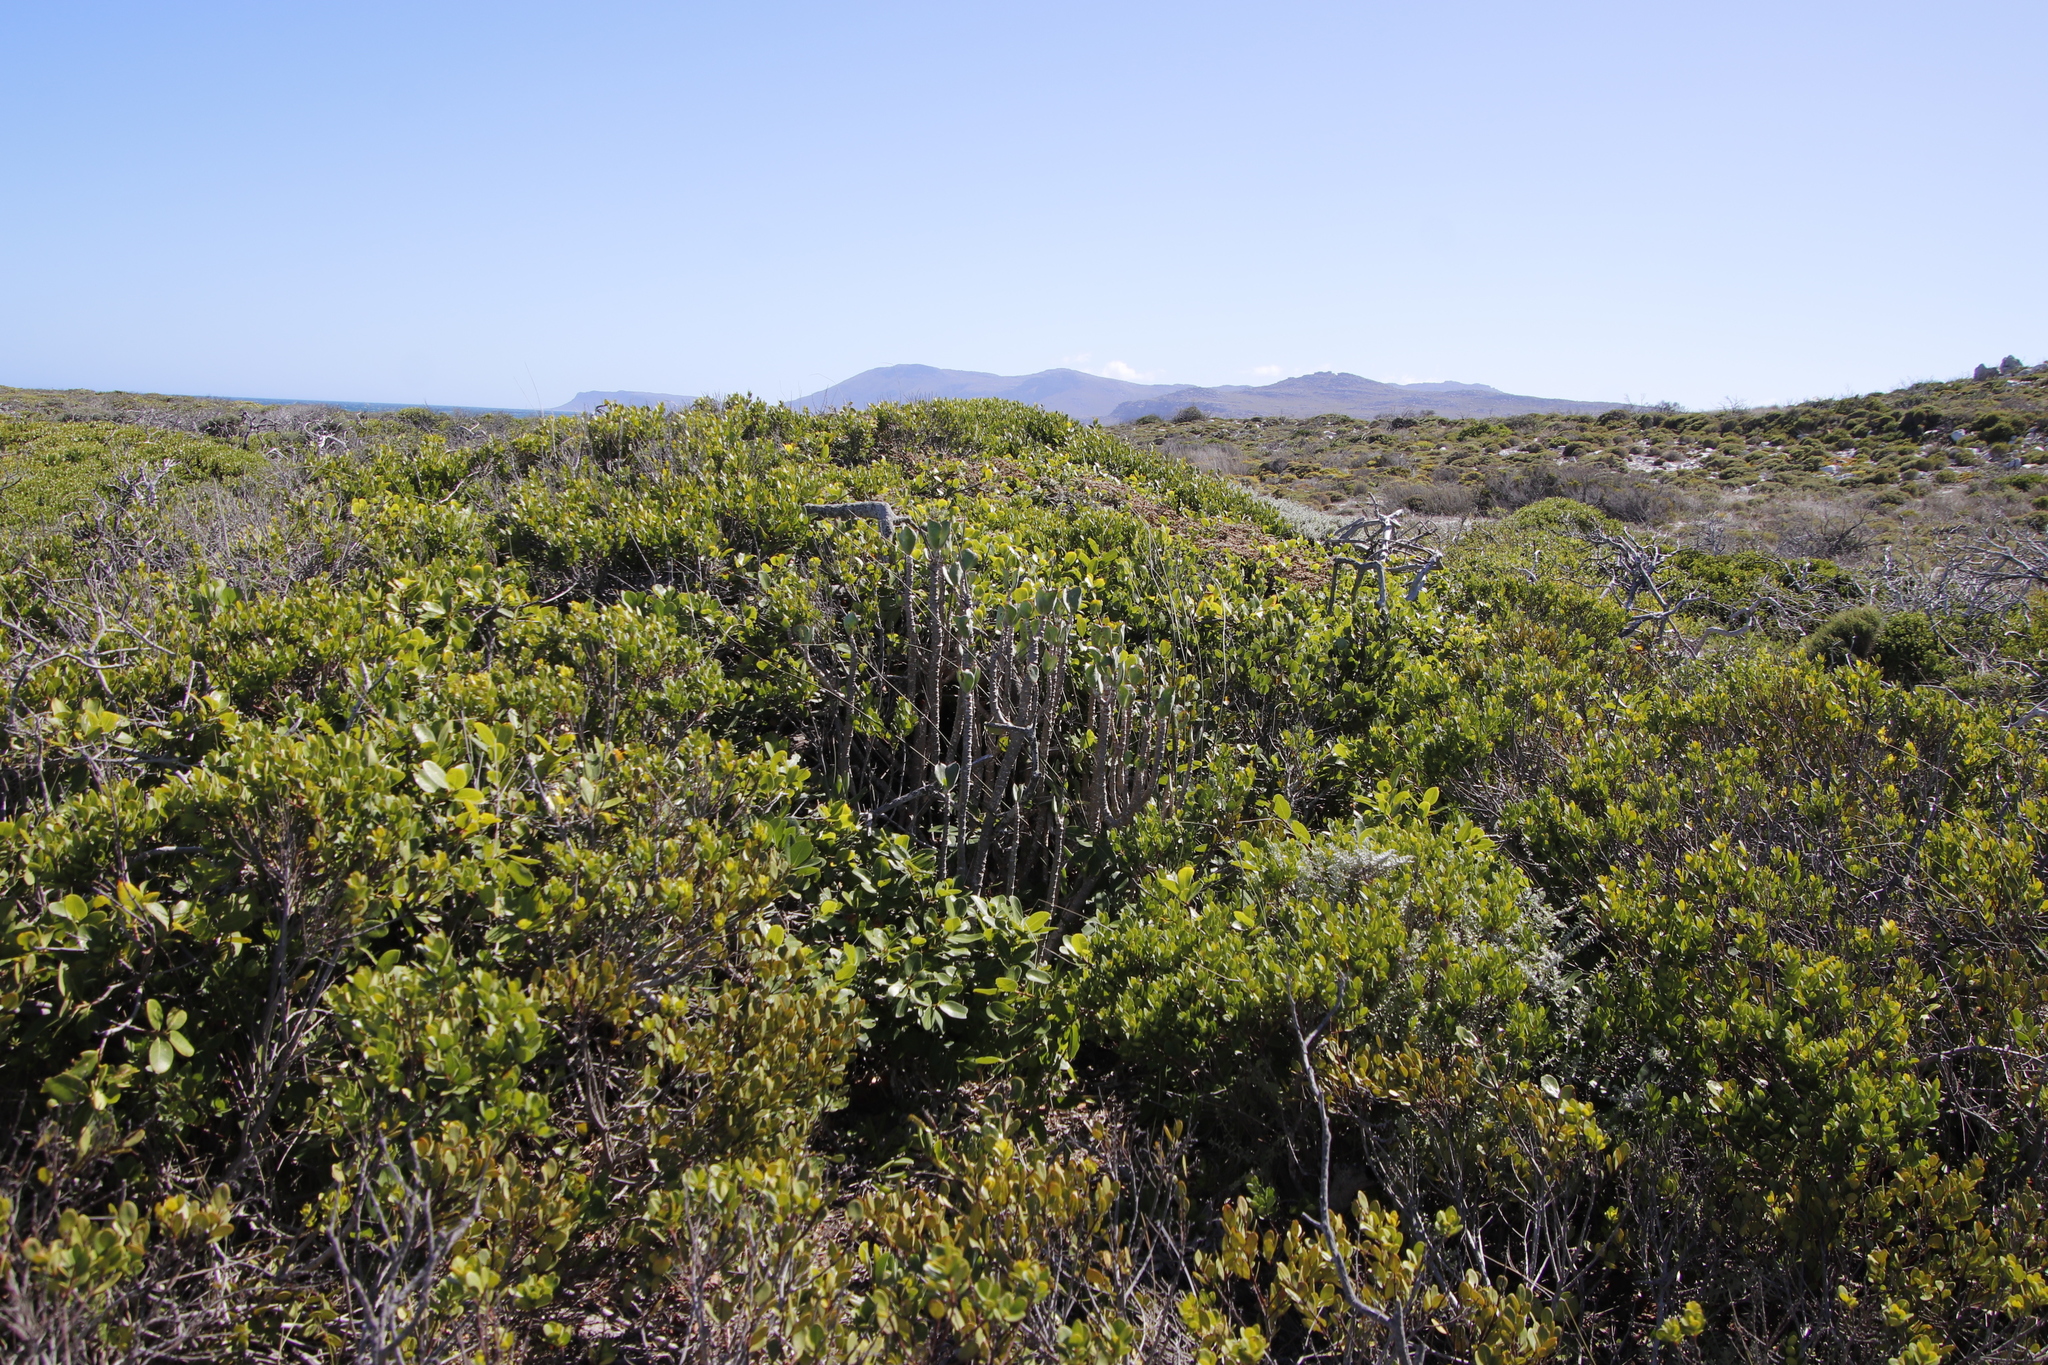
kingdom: Plantae
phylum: Tracheophyta
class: Magnoliopsida
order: Saxifragales
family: Crassulaceae
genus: Cotyledon
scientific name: Cotyledon orbiculata
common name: Pig's ear
